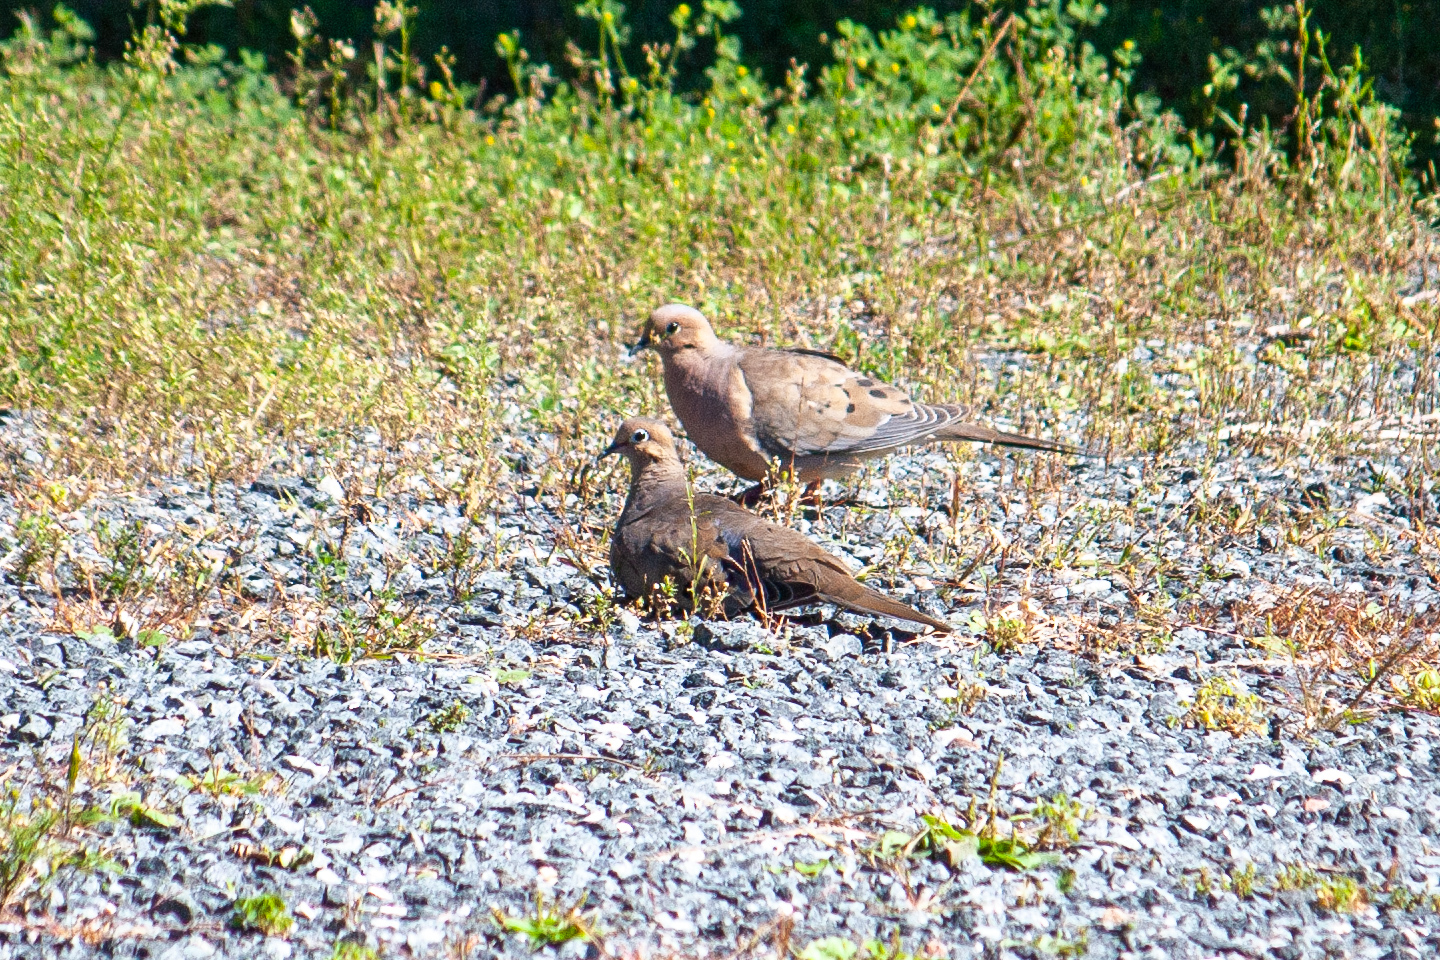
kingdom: Animalia
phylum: Chordata
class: Aves
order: Columbiformes
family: Columbidae
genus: Zenaida
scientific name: Zenaida macroura
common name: Mourning dove
